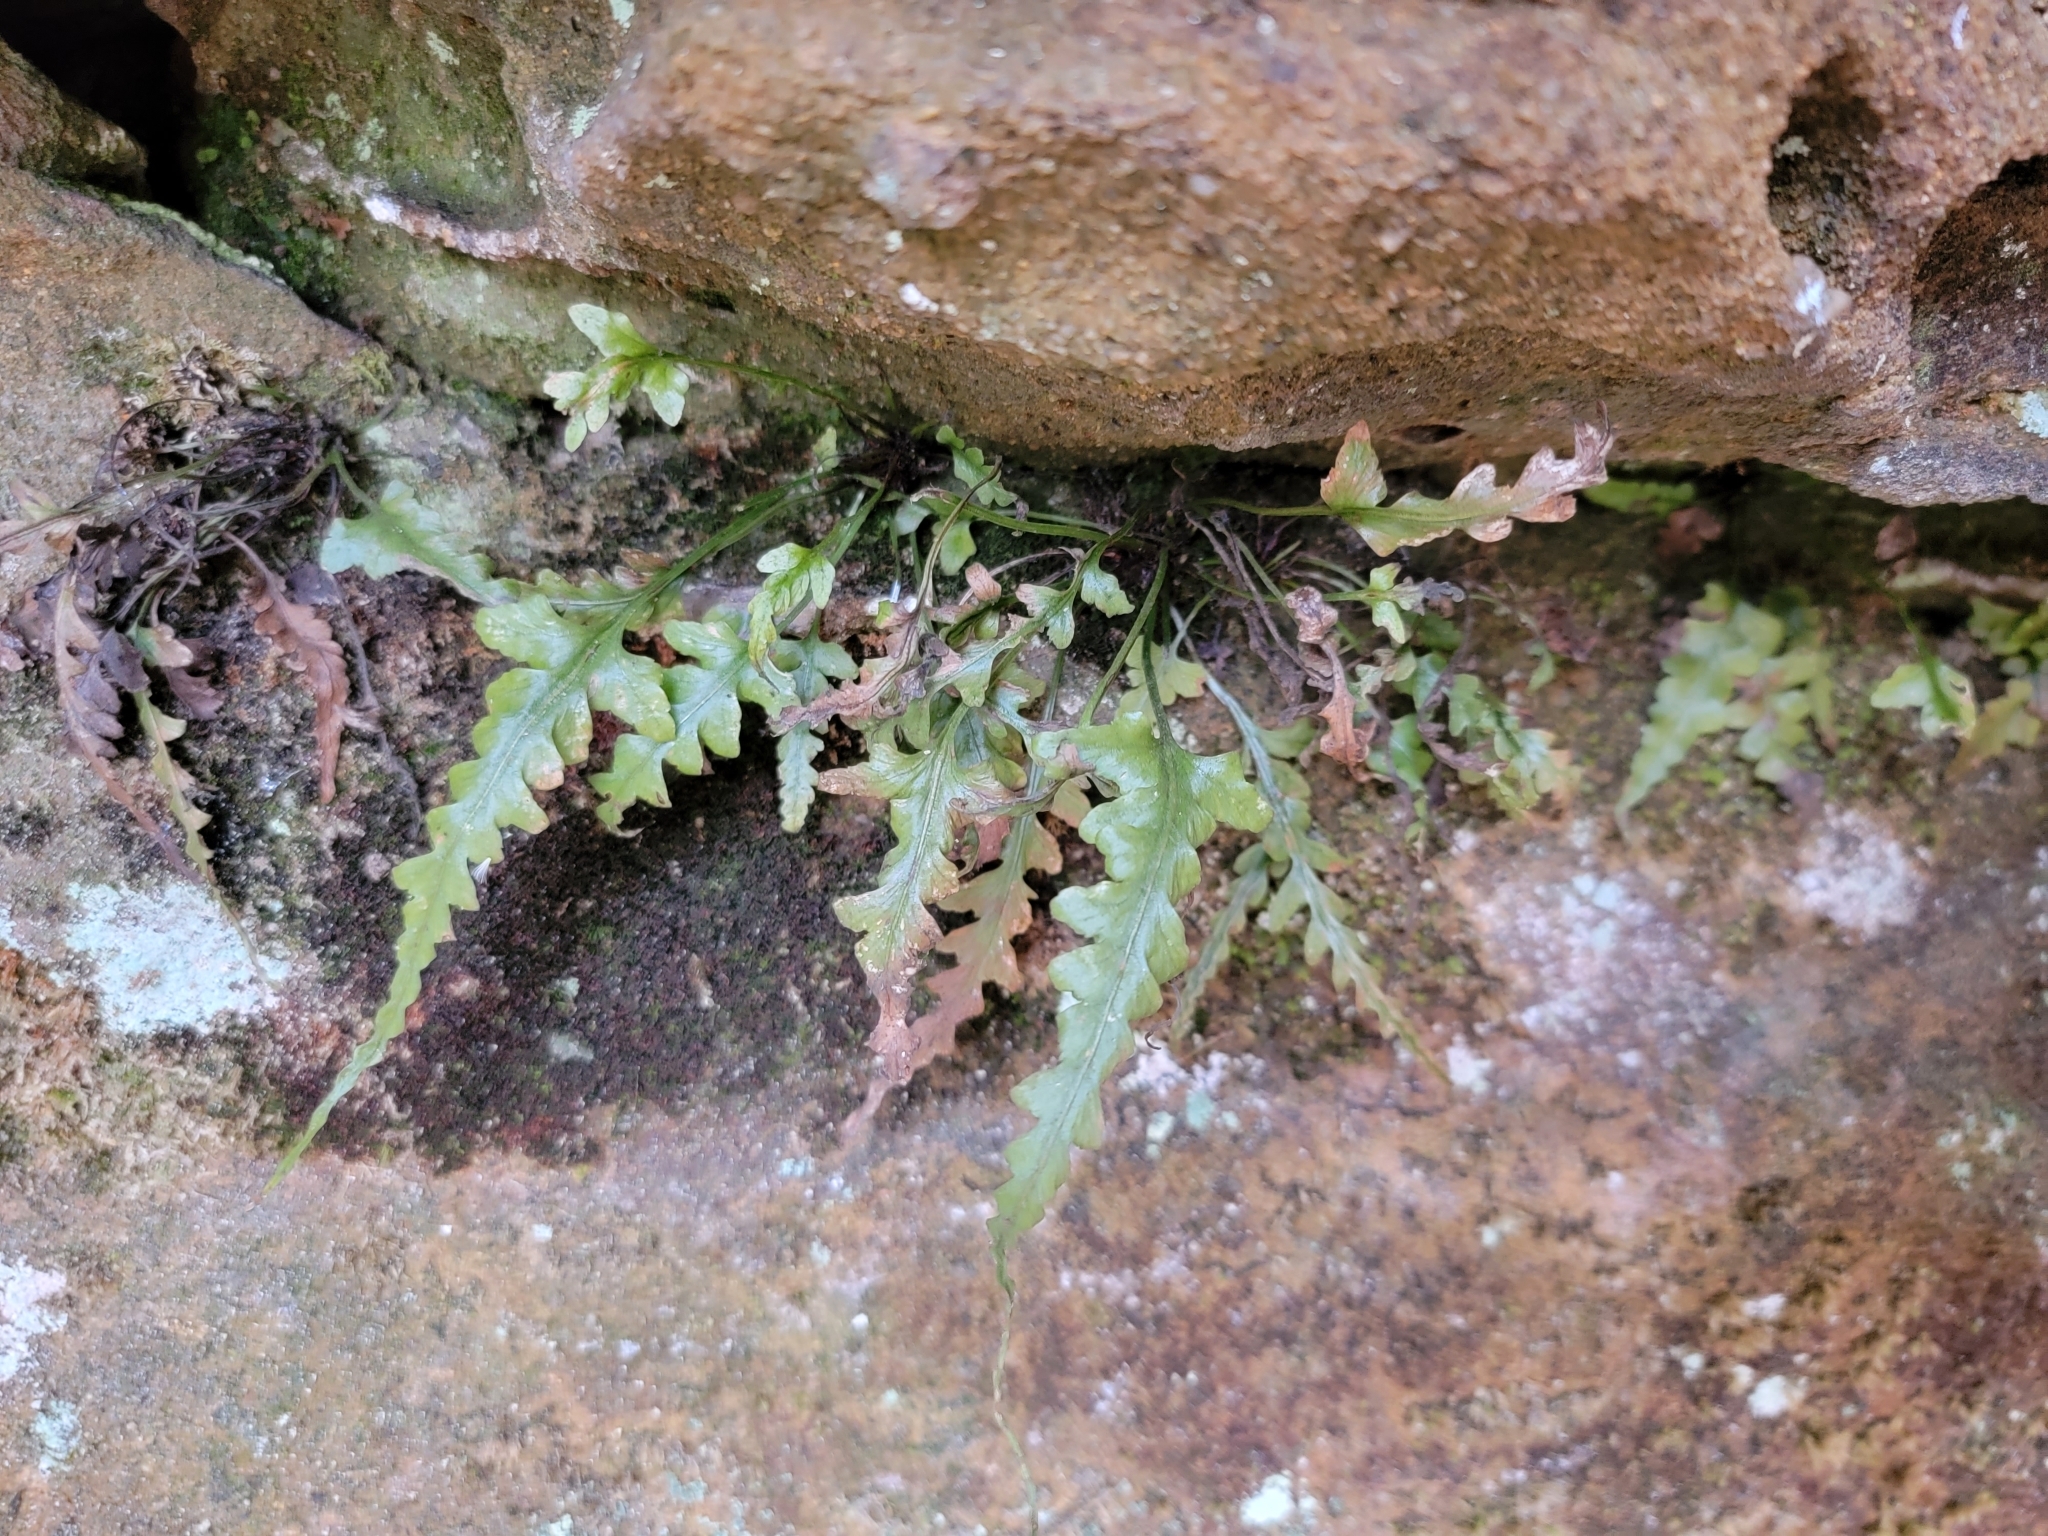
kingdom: Plantae
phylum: Tracheophyta
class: Polypodiopsida
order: Polypodiales
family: Aspleniaceae
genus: Asplenium
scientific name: Asplenium pinnatifidum
